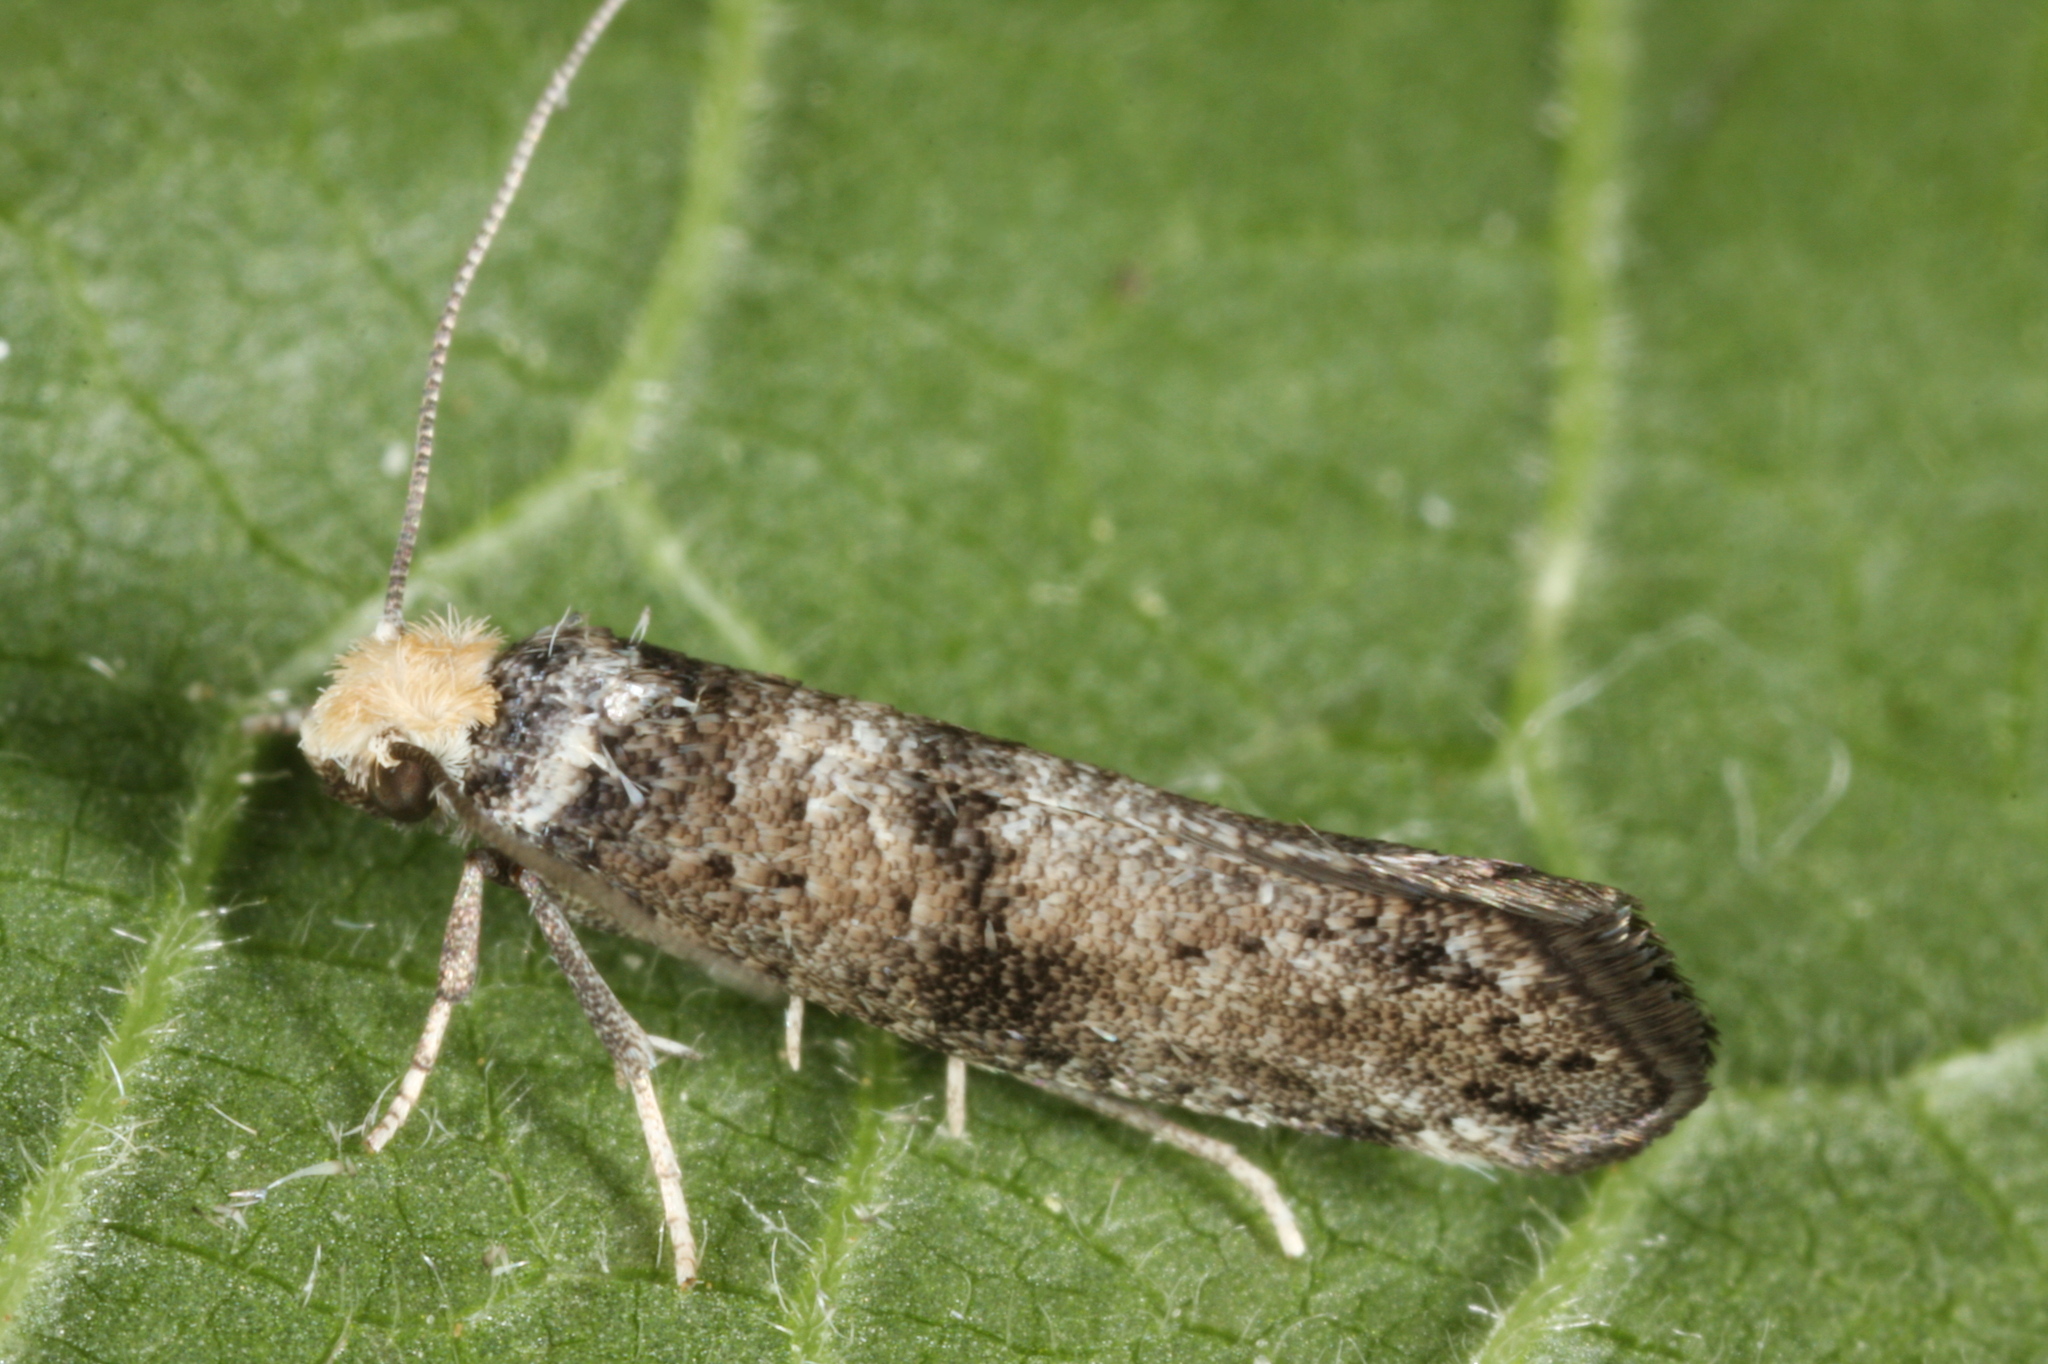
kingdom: Animalia
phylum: Arthropoda
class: Insecta
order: Lepidoptera
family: Yponomeutidae
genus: Paraswammerdamia
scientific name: Paraswammerdamia lutarea
